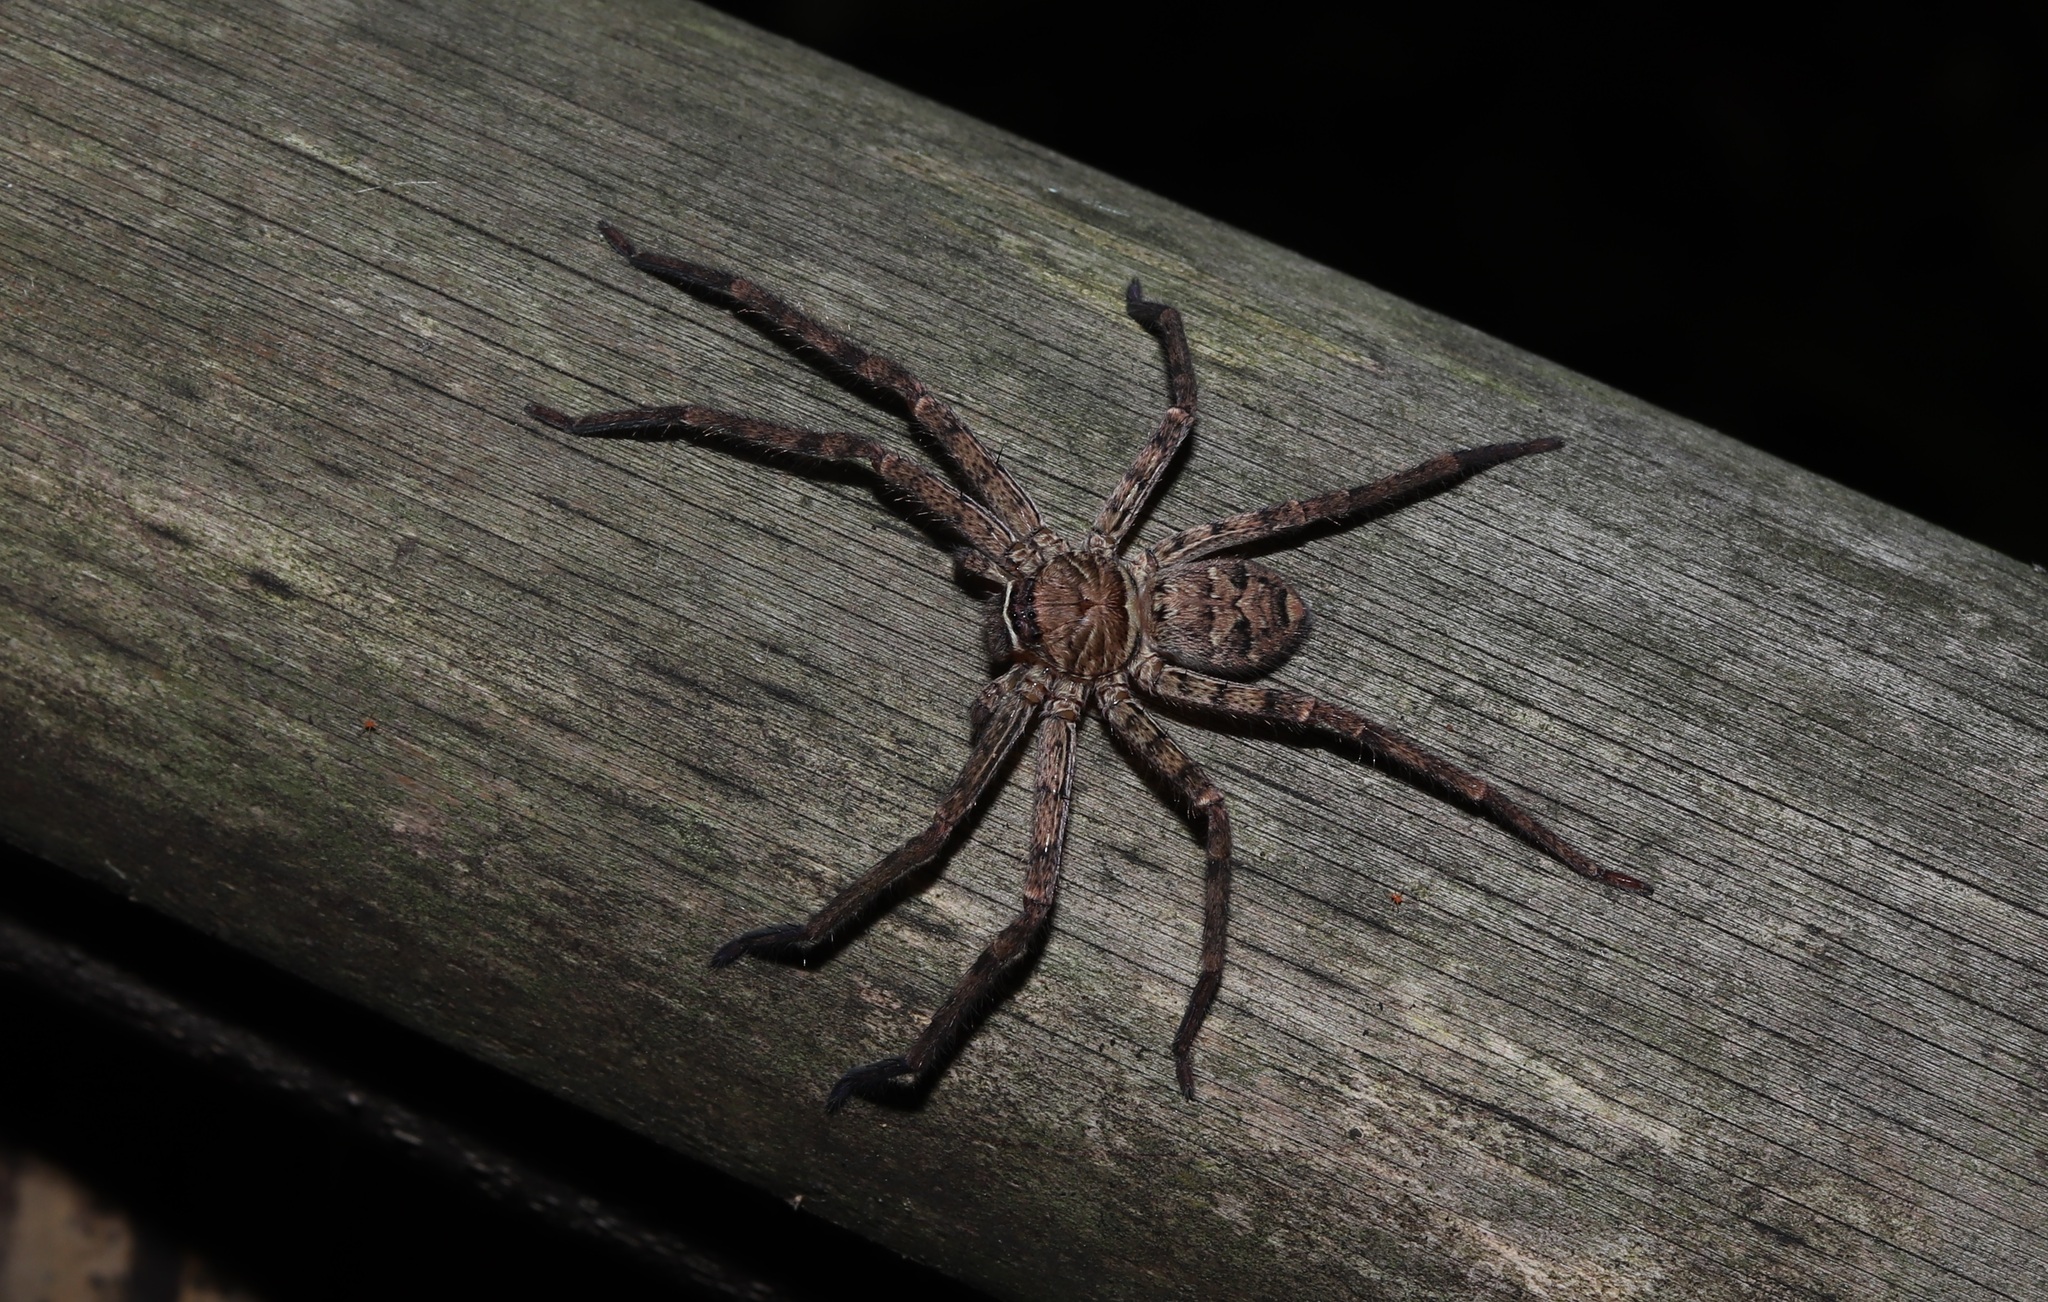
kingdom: Animalia
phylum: Arthropoda
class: Arachnida
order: Araneae
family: Sparassidae
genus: Heteropoda
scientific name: Heteropoda venatoria
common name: Huntsman spider
